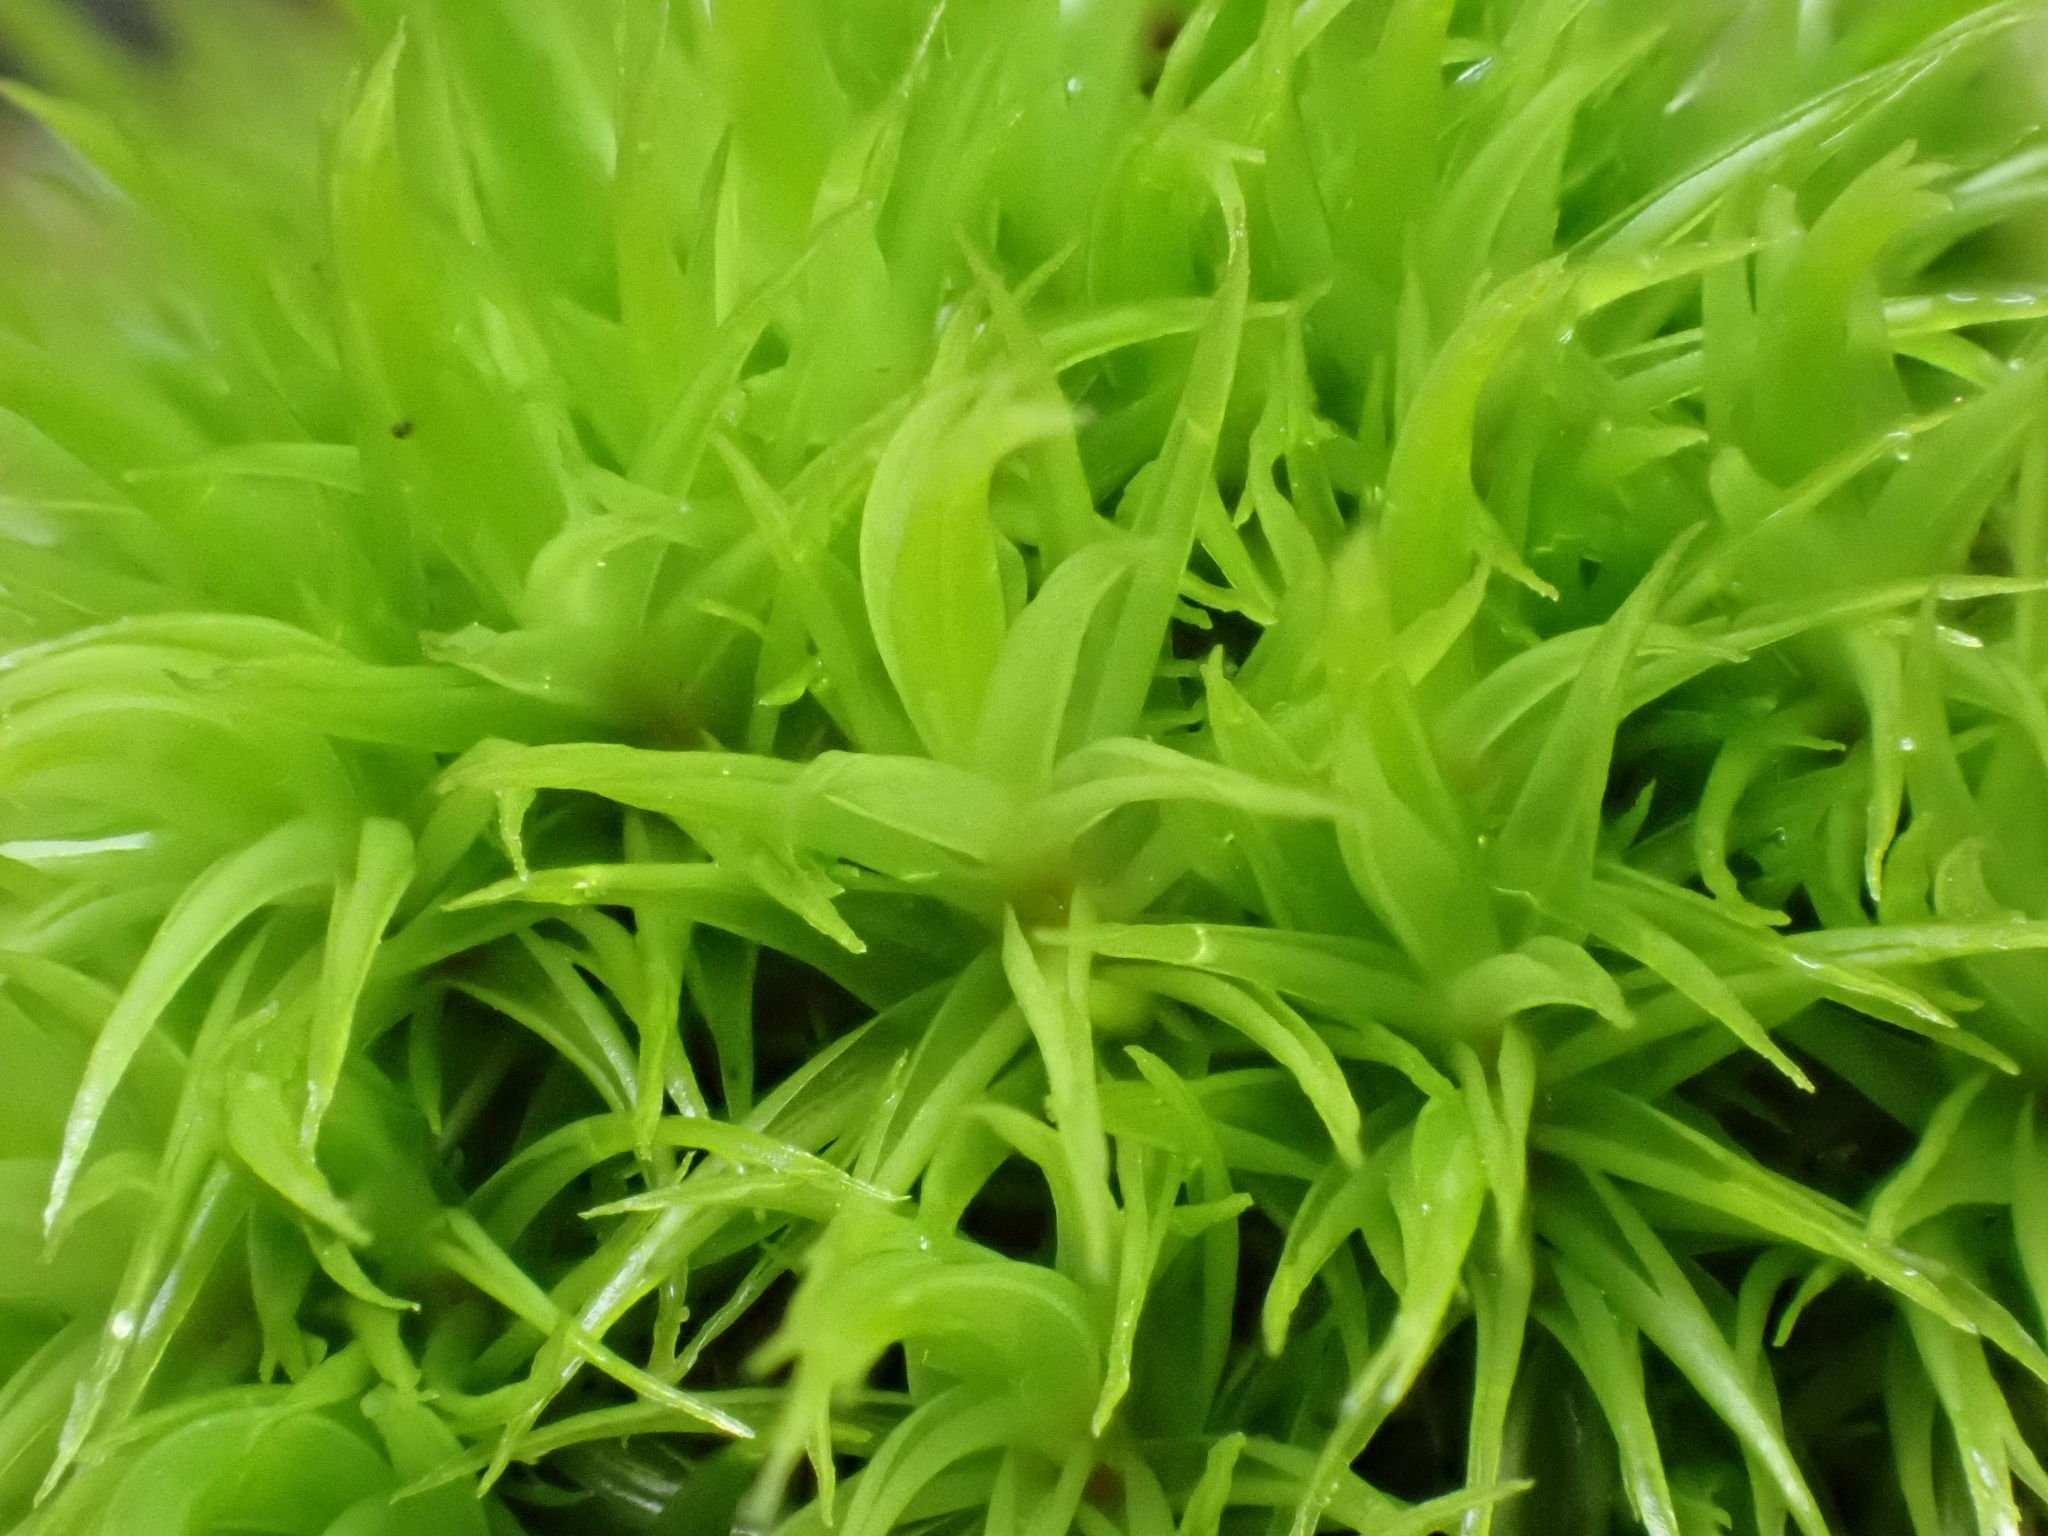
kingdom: Plantae
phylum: Bryophyta
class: Bryopsida
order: Dicranales
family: Dicranaceae
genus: Dicranum
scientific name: Dicranum scoparium
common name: Broom fork-moss
